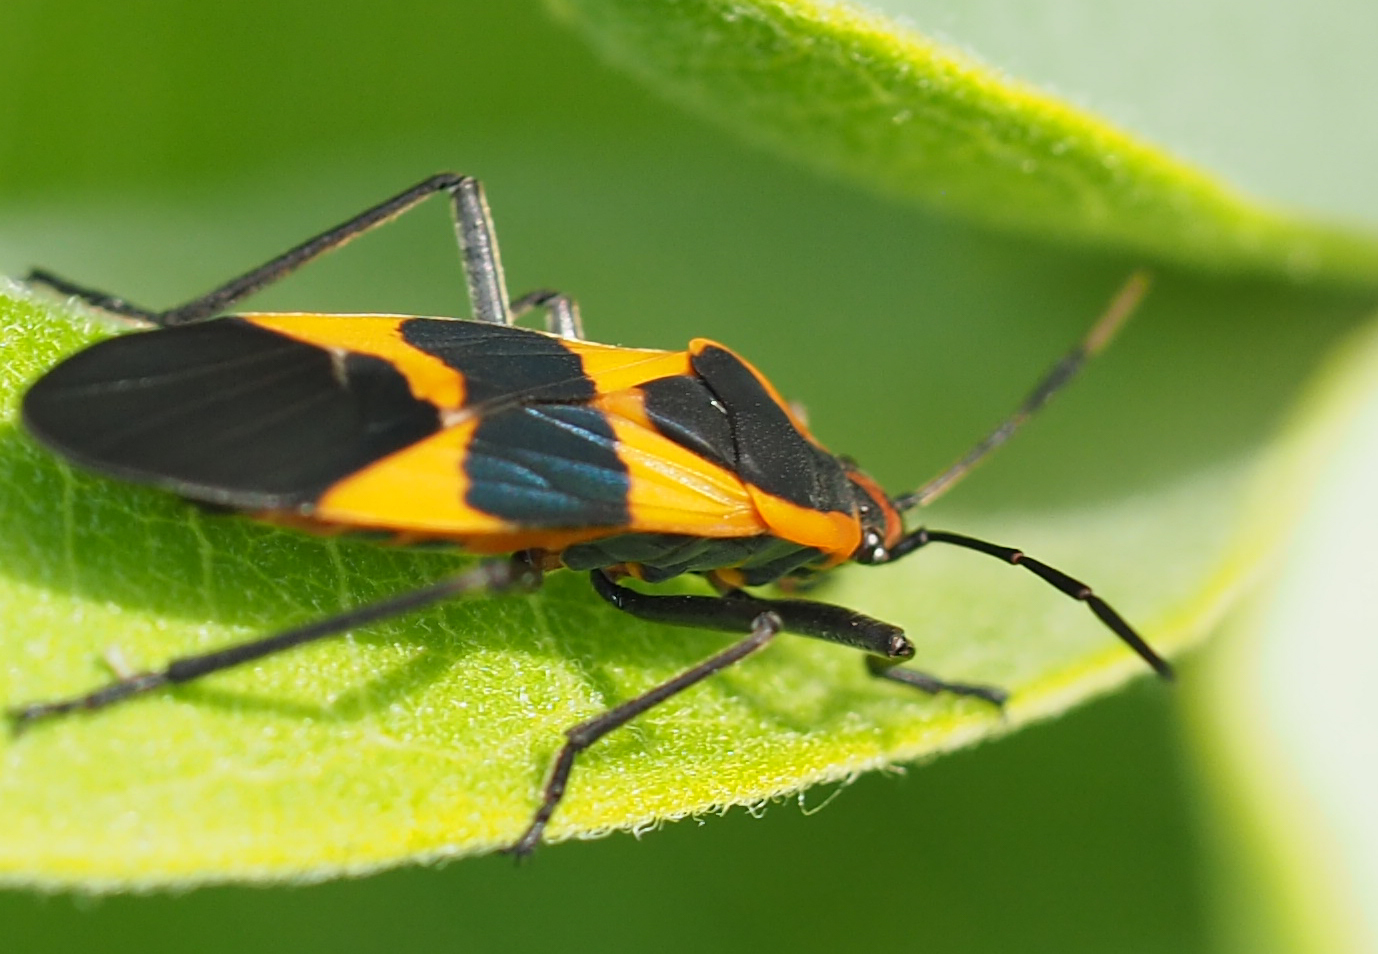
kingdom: Animalia
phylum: Arthropoda
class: Insecta
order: Hemiptera
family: Lygaeidae
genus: Oncopeltus
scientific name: Oncopeltus fasciatus
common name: Large milkweed bug
